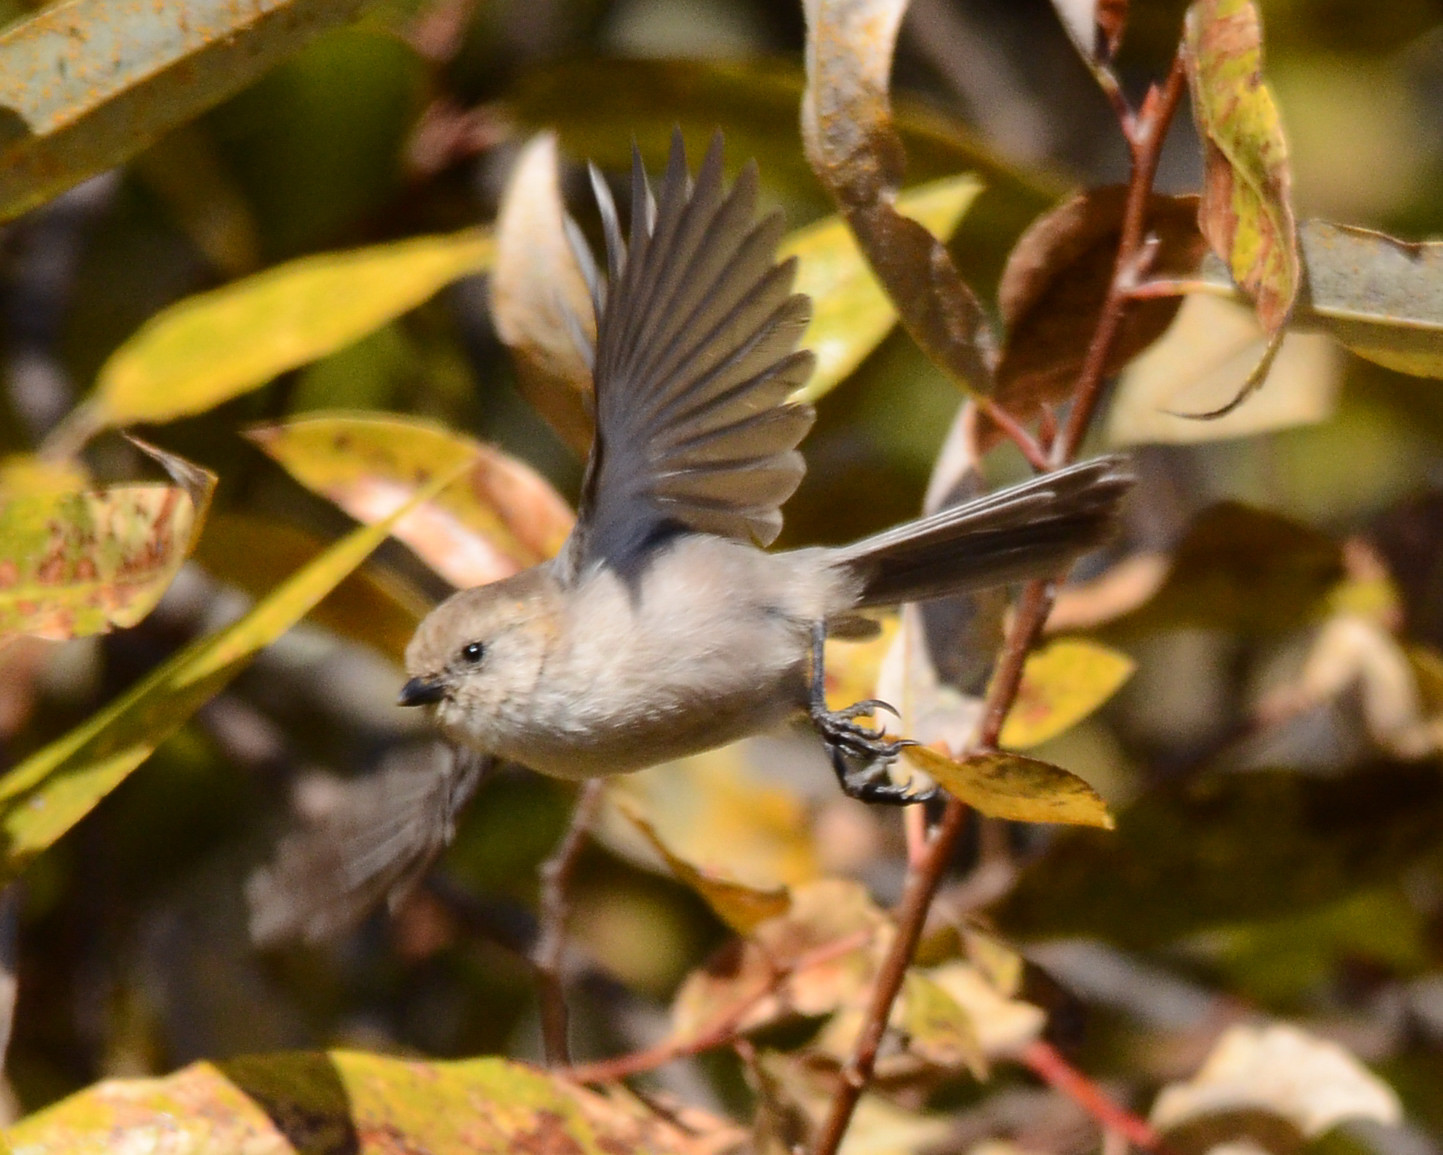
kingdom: Animalia
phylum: Chordata
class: Aves
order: Passeriformes
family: Aegithalidae
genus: Psaltriparus
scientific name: Psaltriparus minimus
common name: American bushtit
